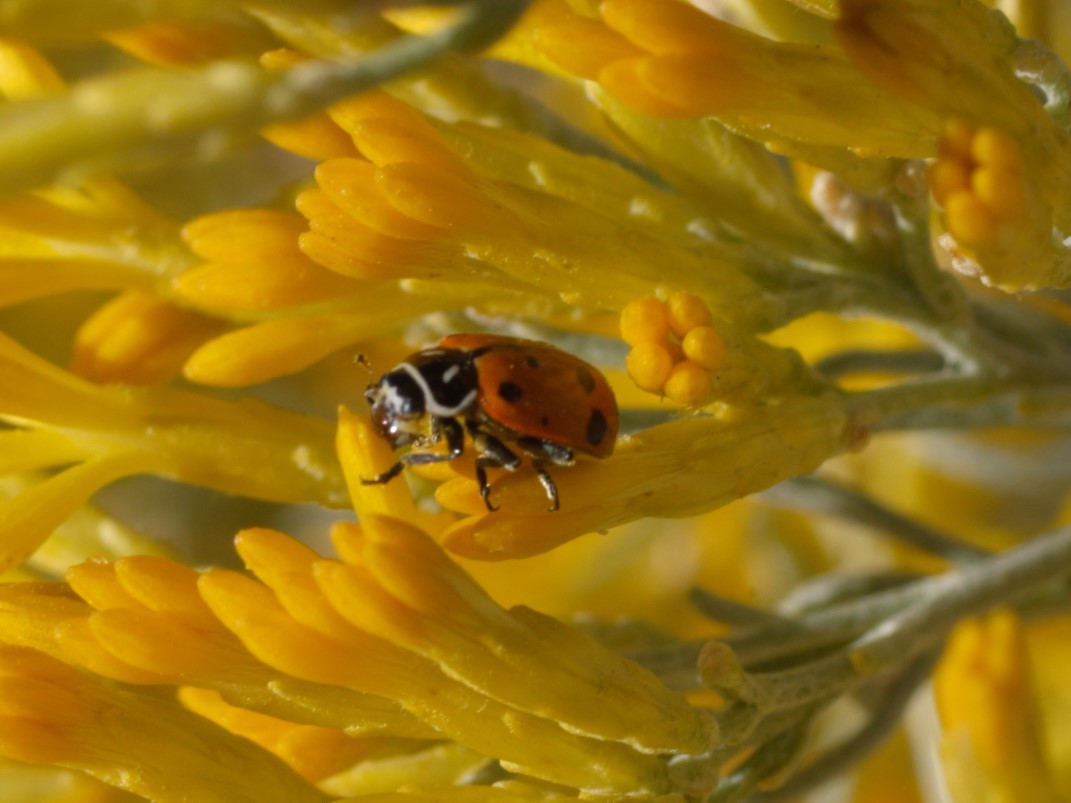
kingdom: Animalia
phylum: Arthropoda
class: Insecta
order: Coleoptera
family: Coccinellidae
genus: Hippodamia
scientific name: Hippodamia convergens
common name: Convergent lady beetle
